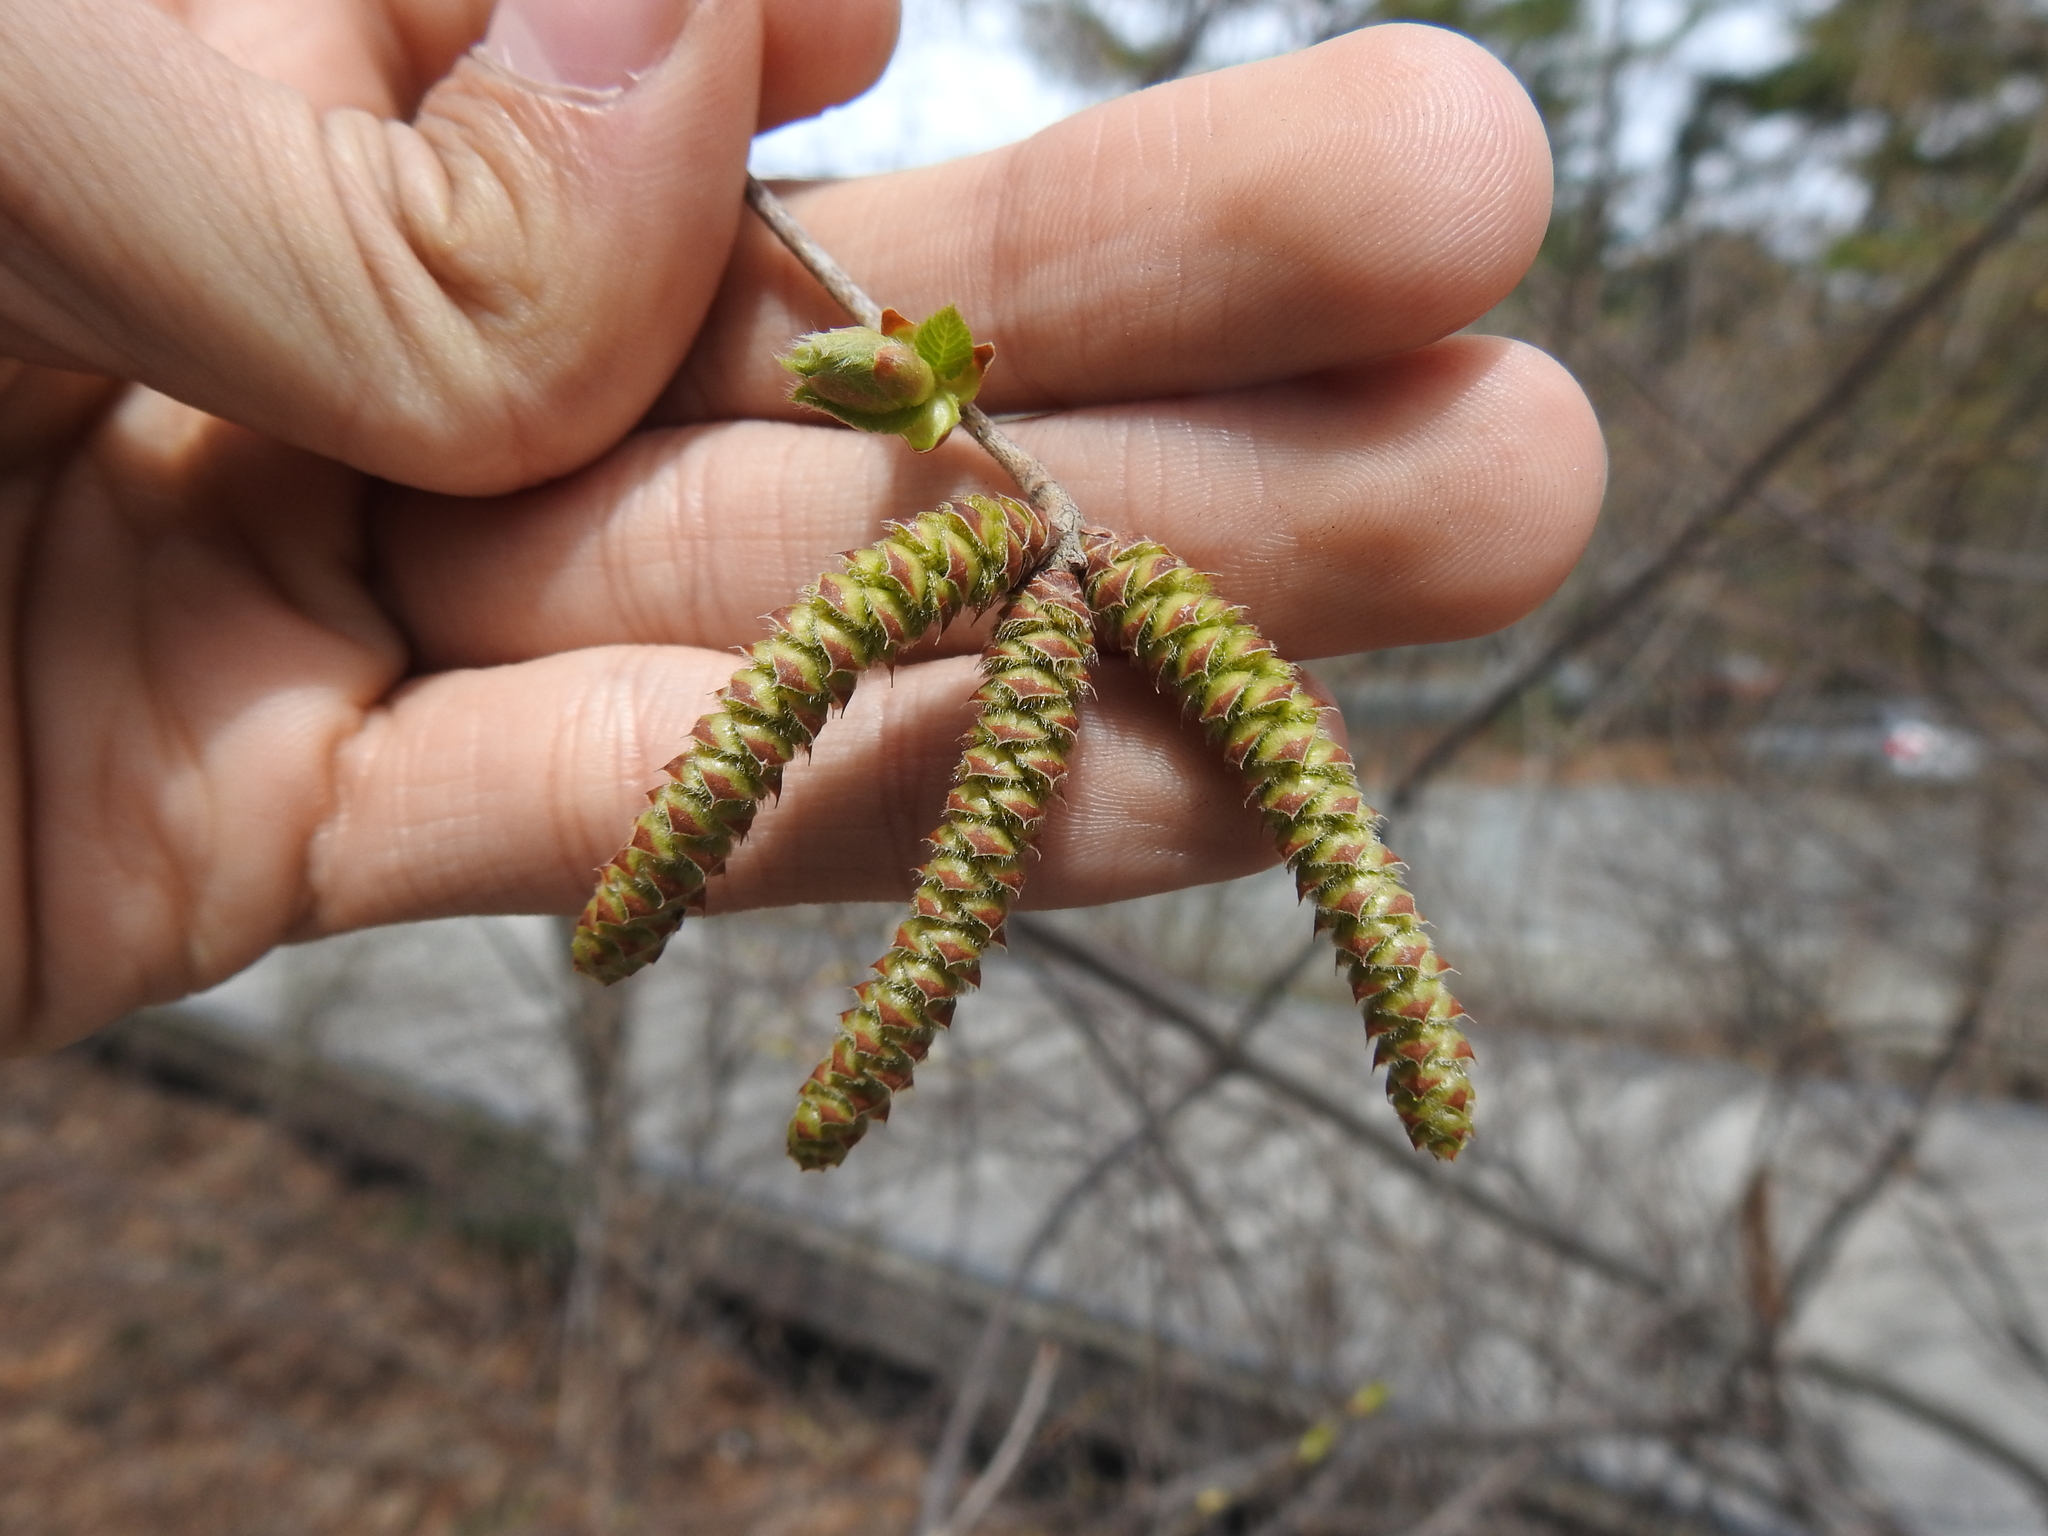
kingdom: Plantae
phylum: Tracheophyta
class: Magnoliopsida
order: Fagales
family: Betulaceae
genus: Ostrya
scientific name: Ostrya virginiana
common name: Ironwood
